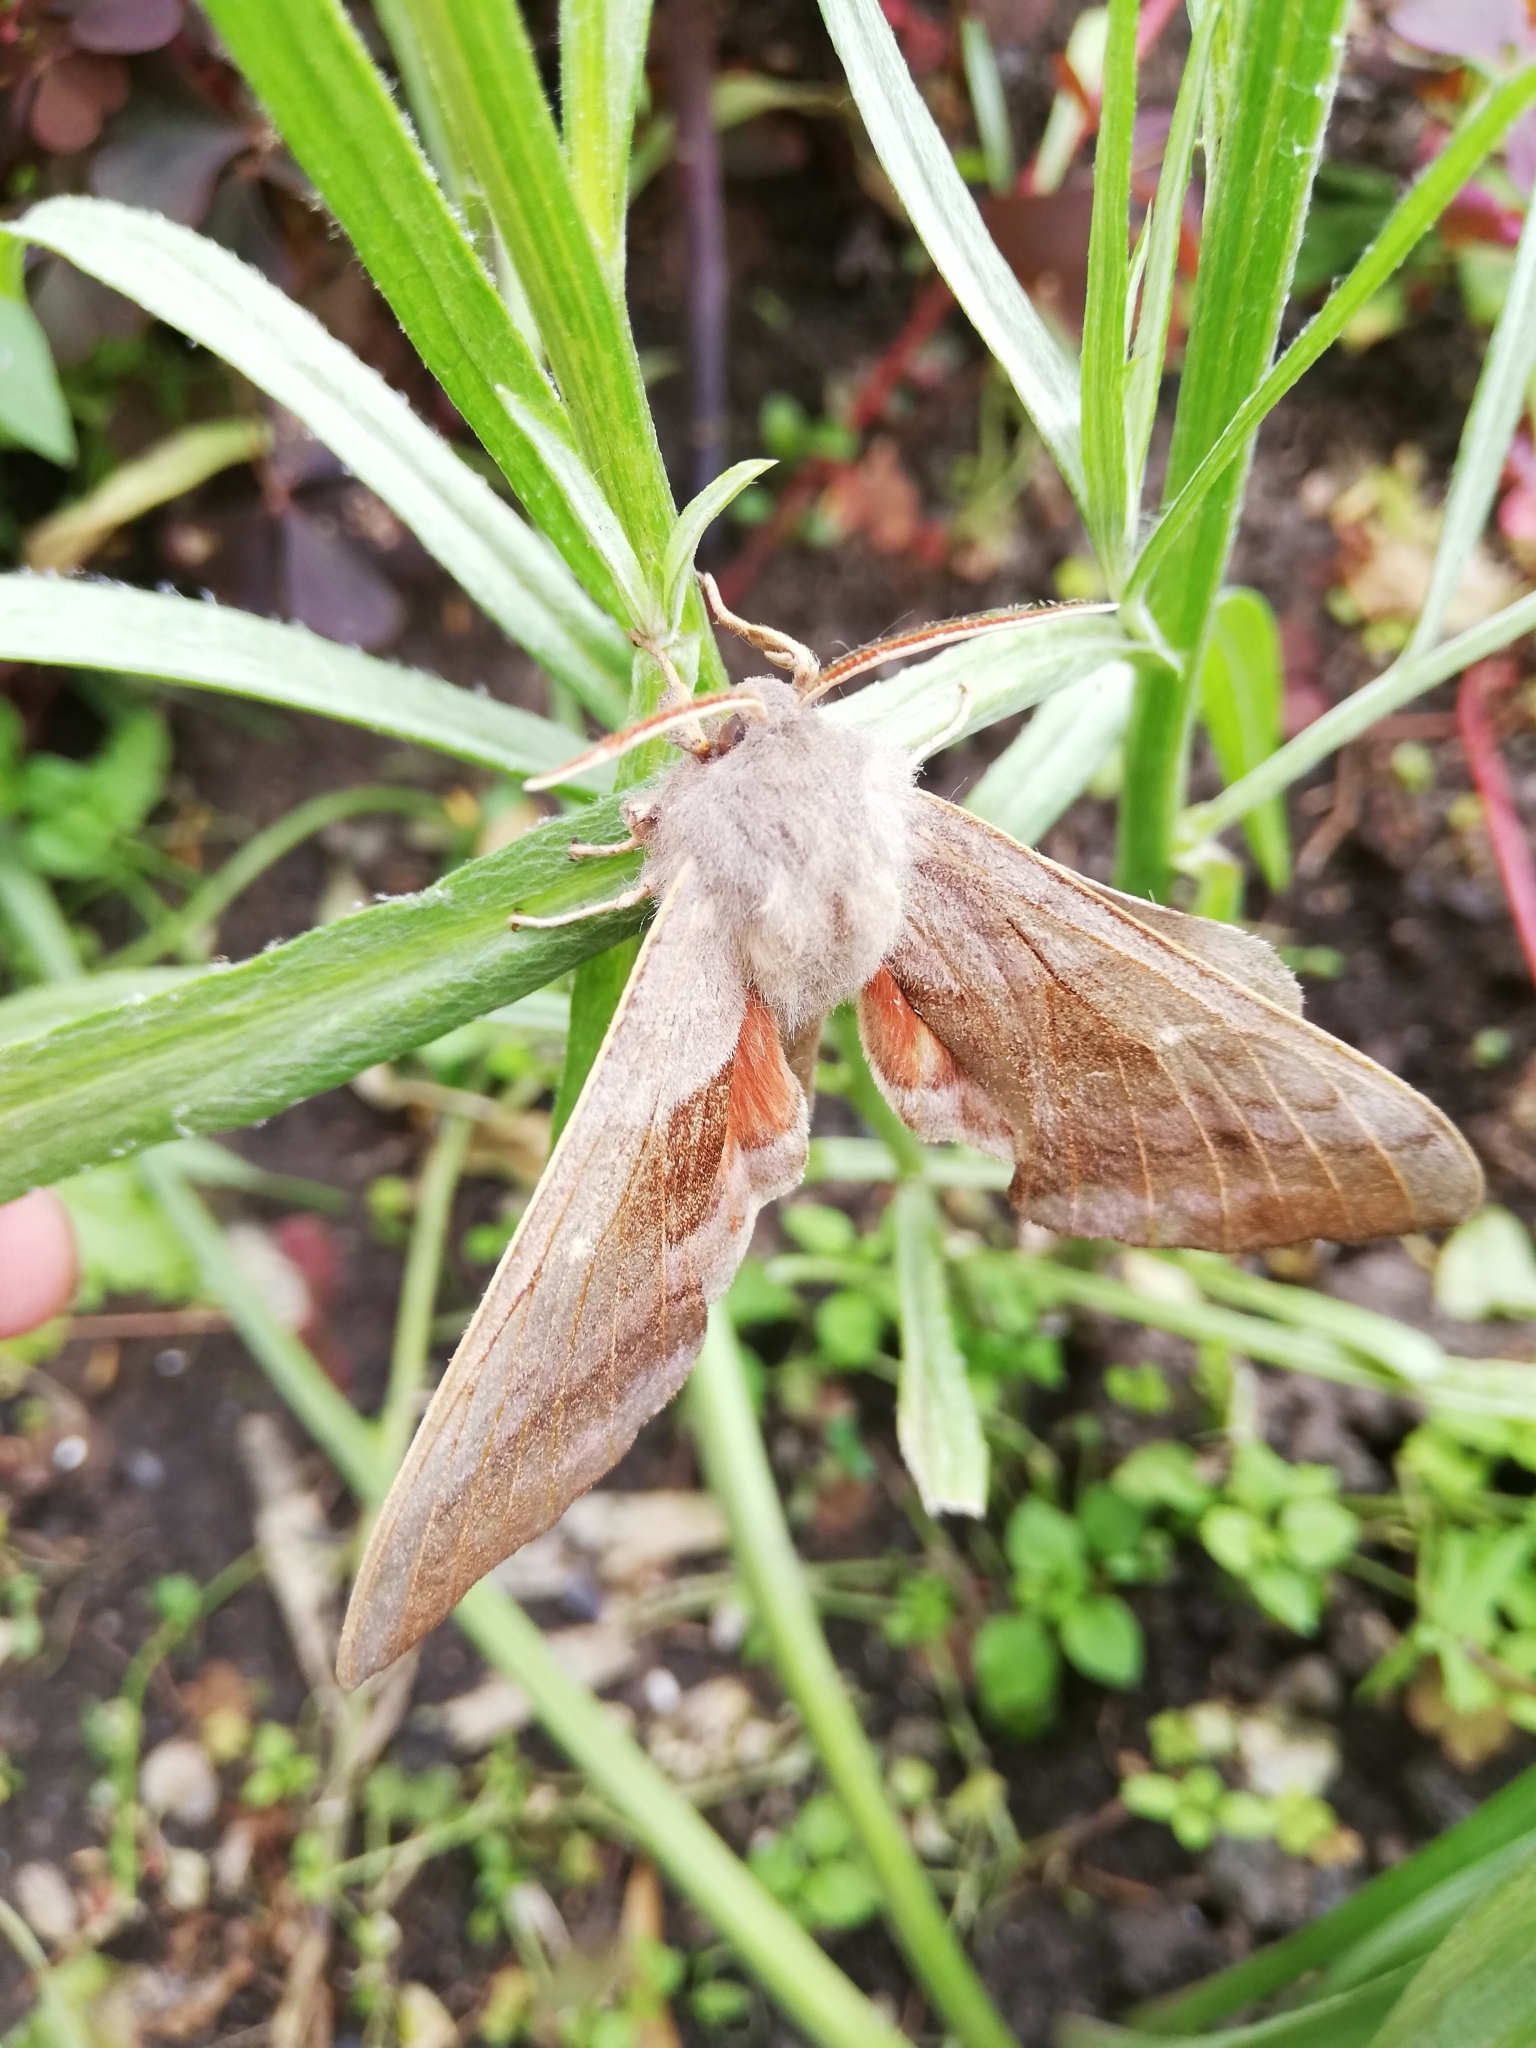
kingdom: Animalia
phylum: Arthropoda
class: Insecta
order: Lepidoptera
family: Sphingidae
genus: Laothoe
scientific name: Laothoe populi
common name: Poplar hawk-moth
